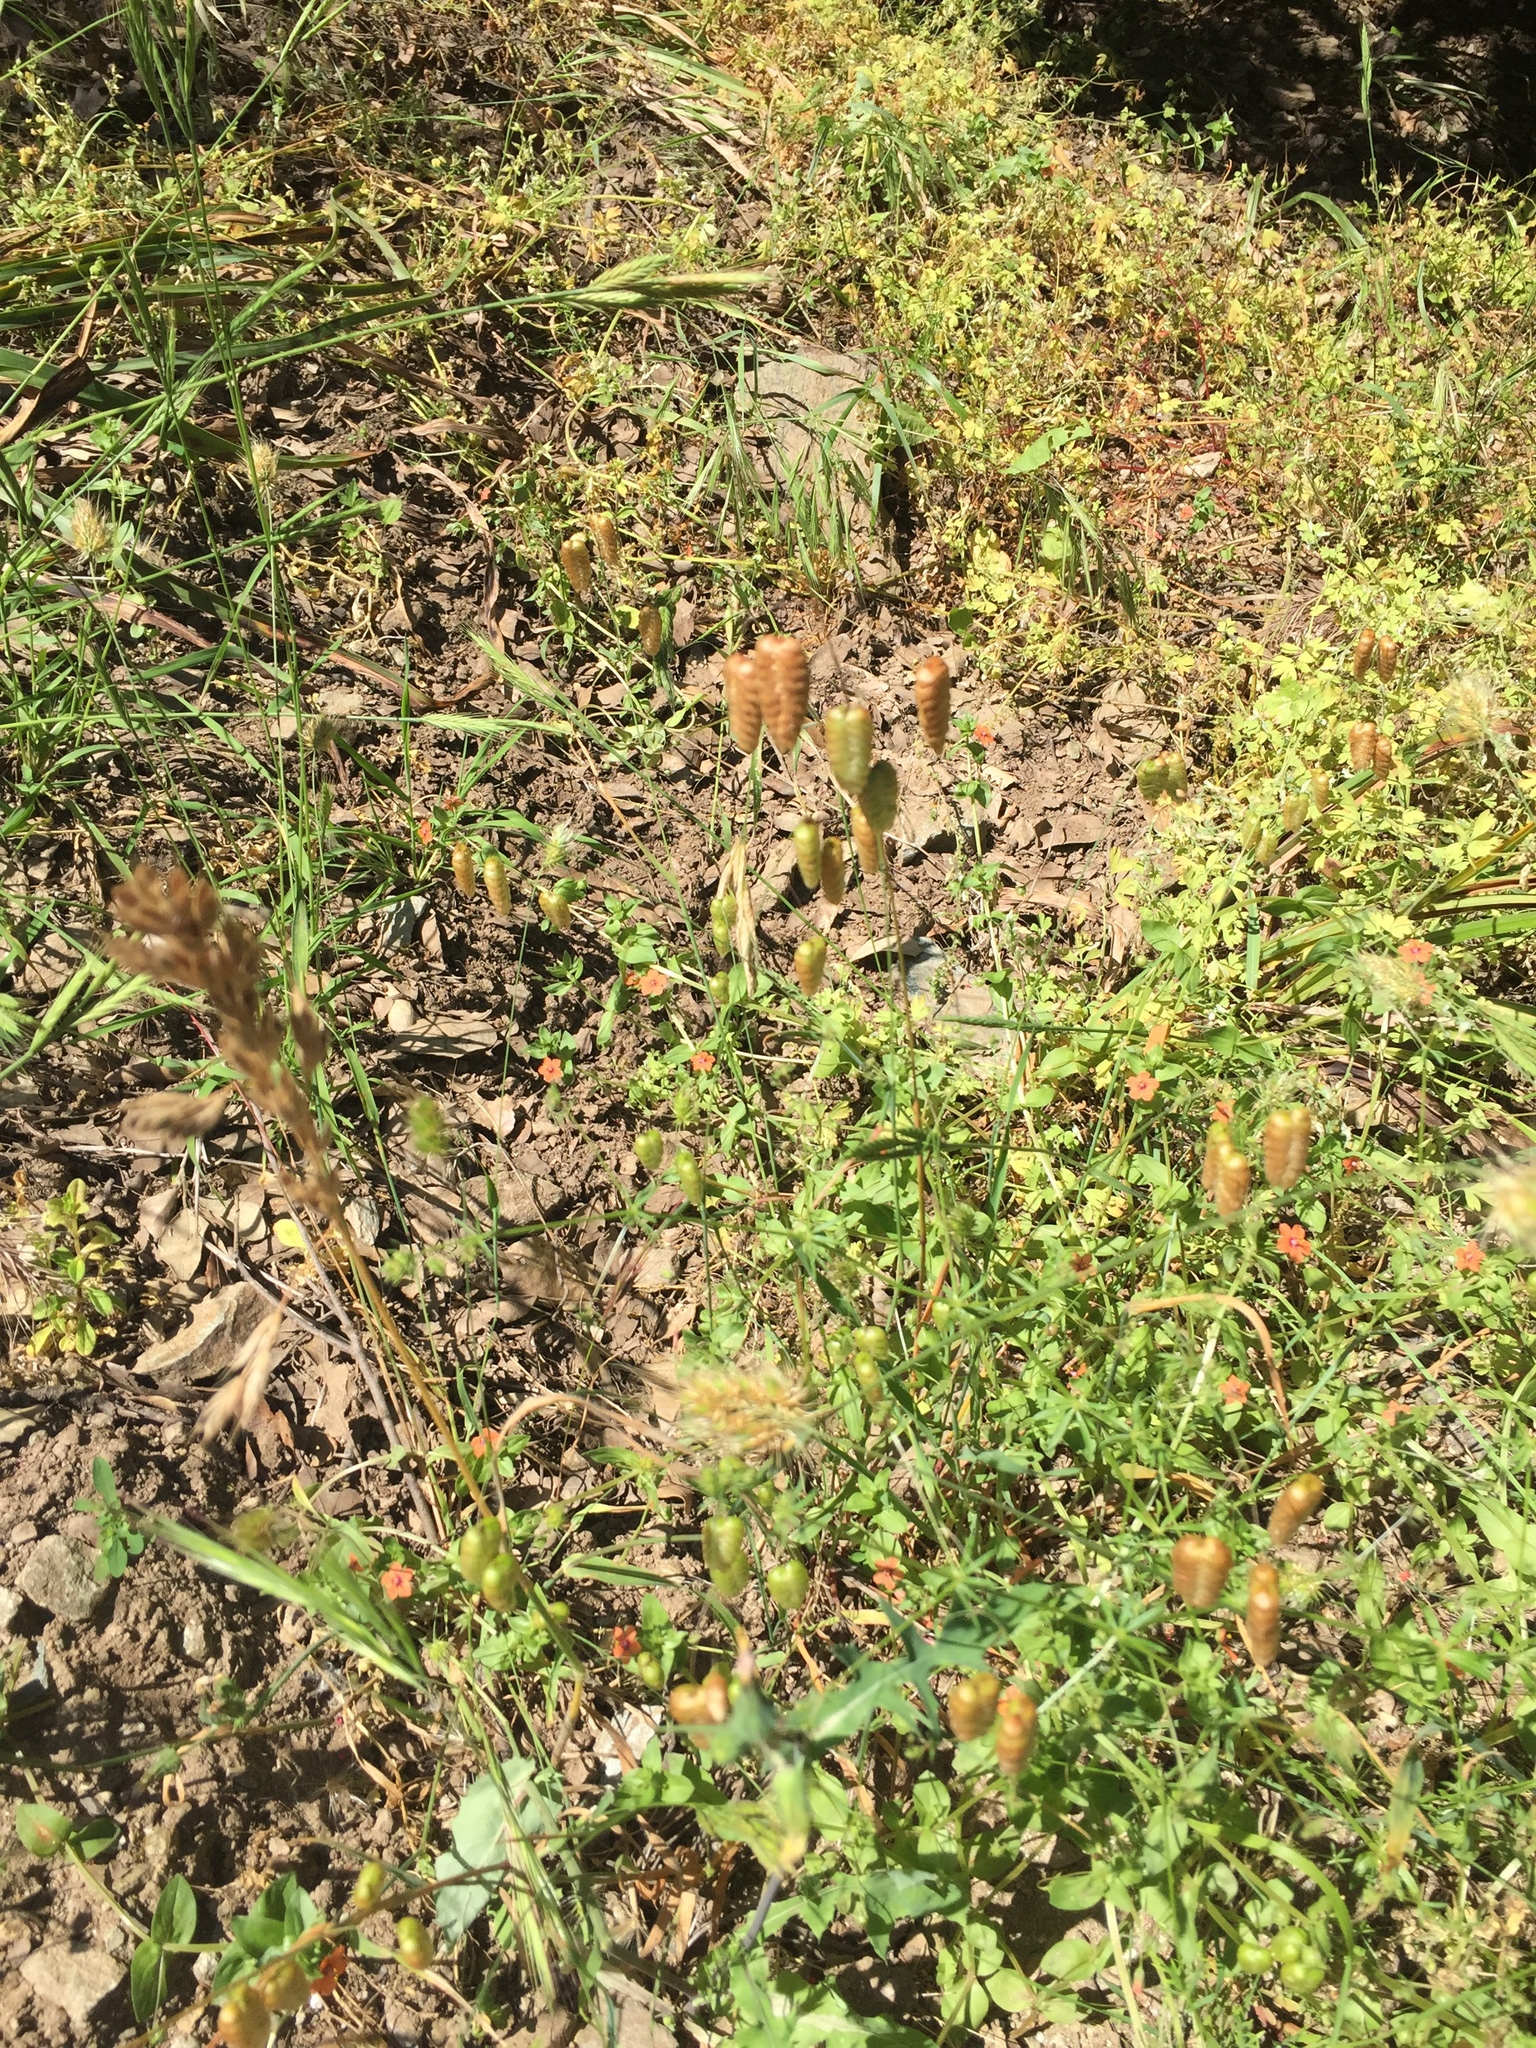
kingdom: Plantae
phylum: Tracheophyta
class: Liliopsida
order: Poales
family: Poaceae
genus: Briza
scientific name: Briza maxima
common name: Big quakinggrass
